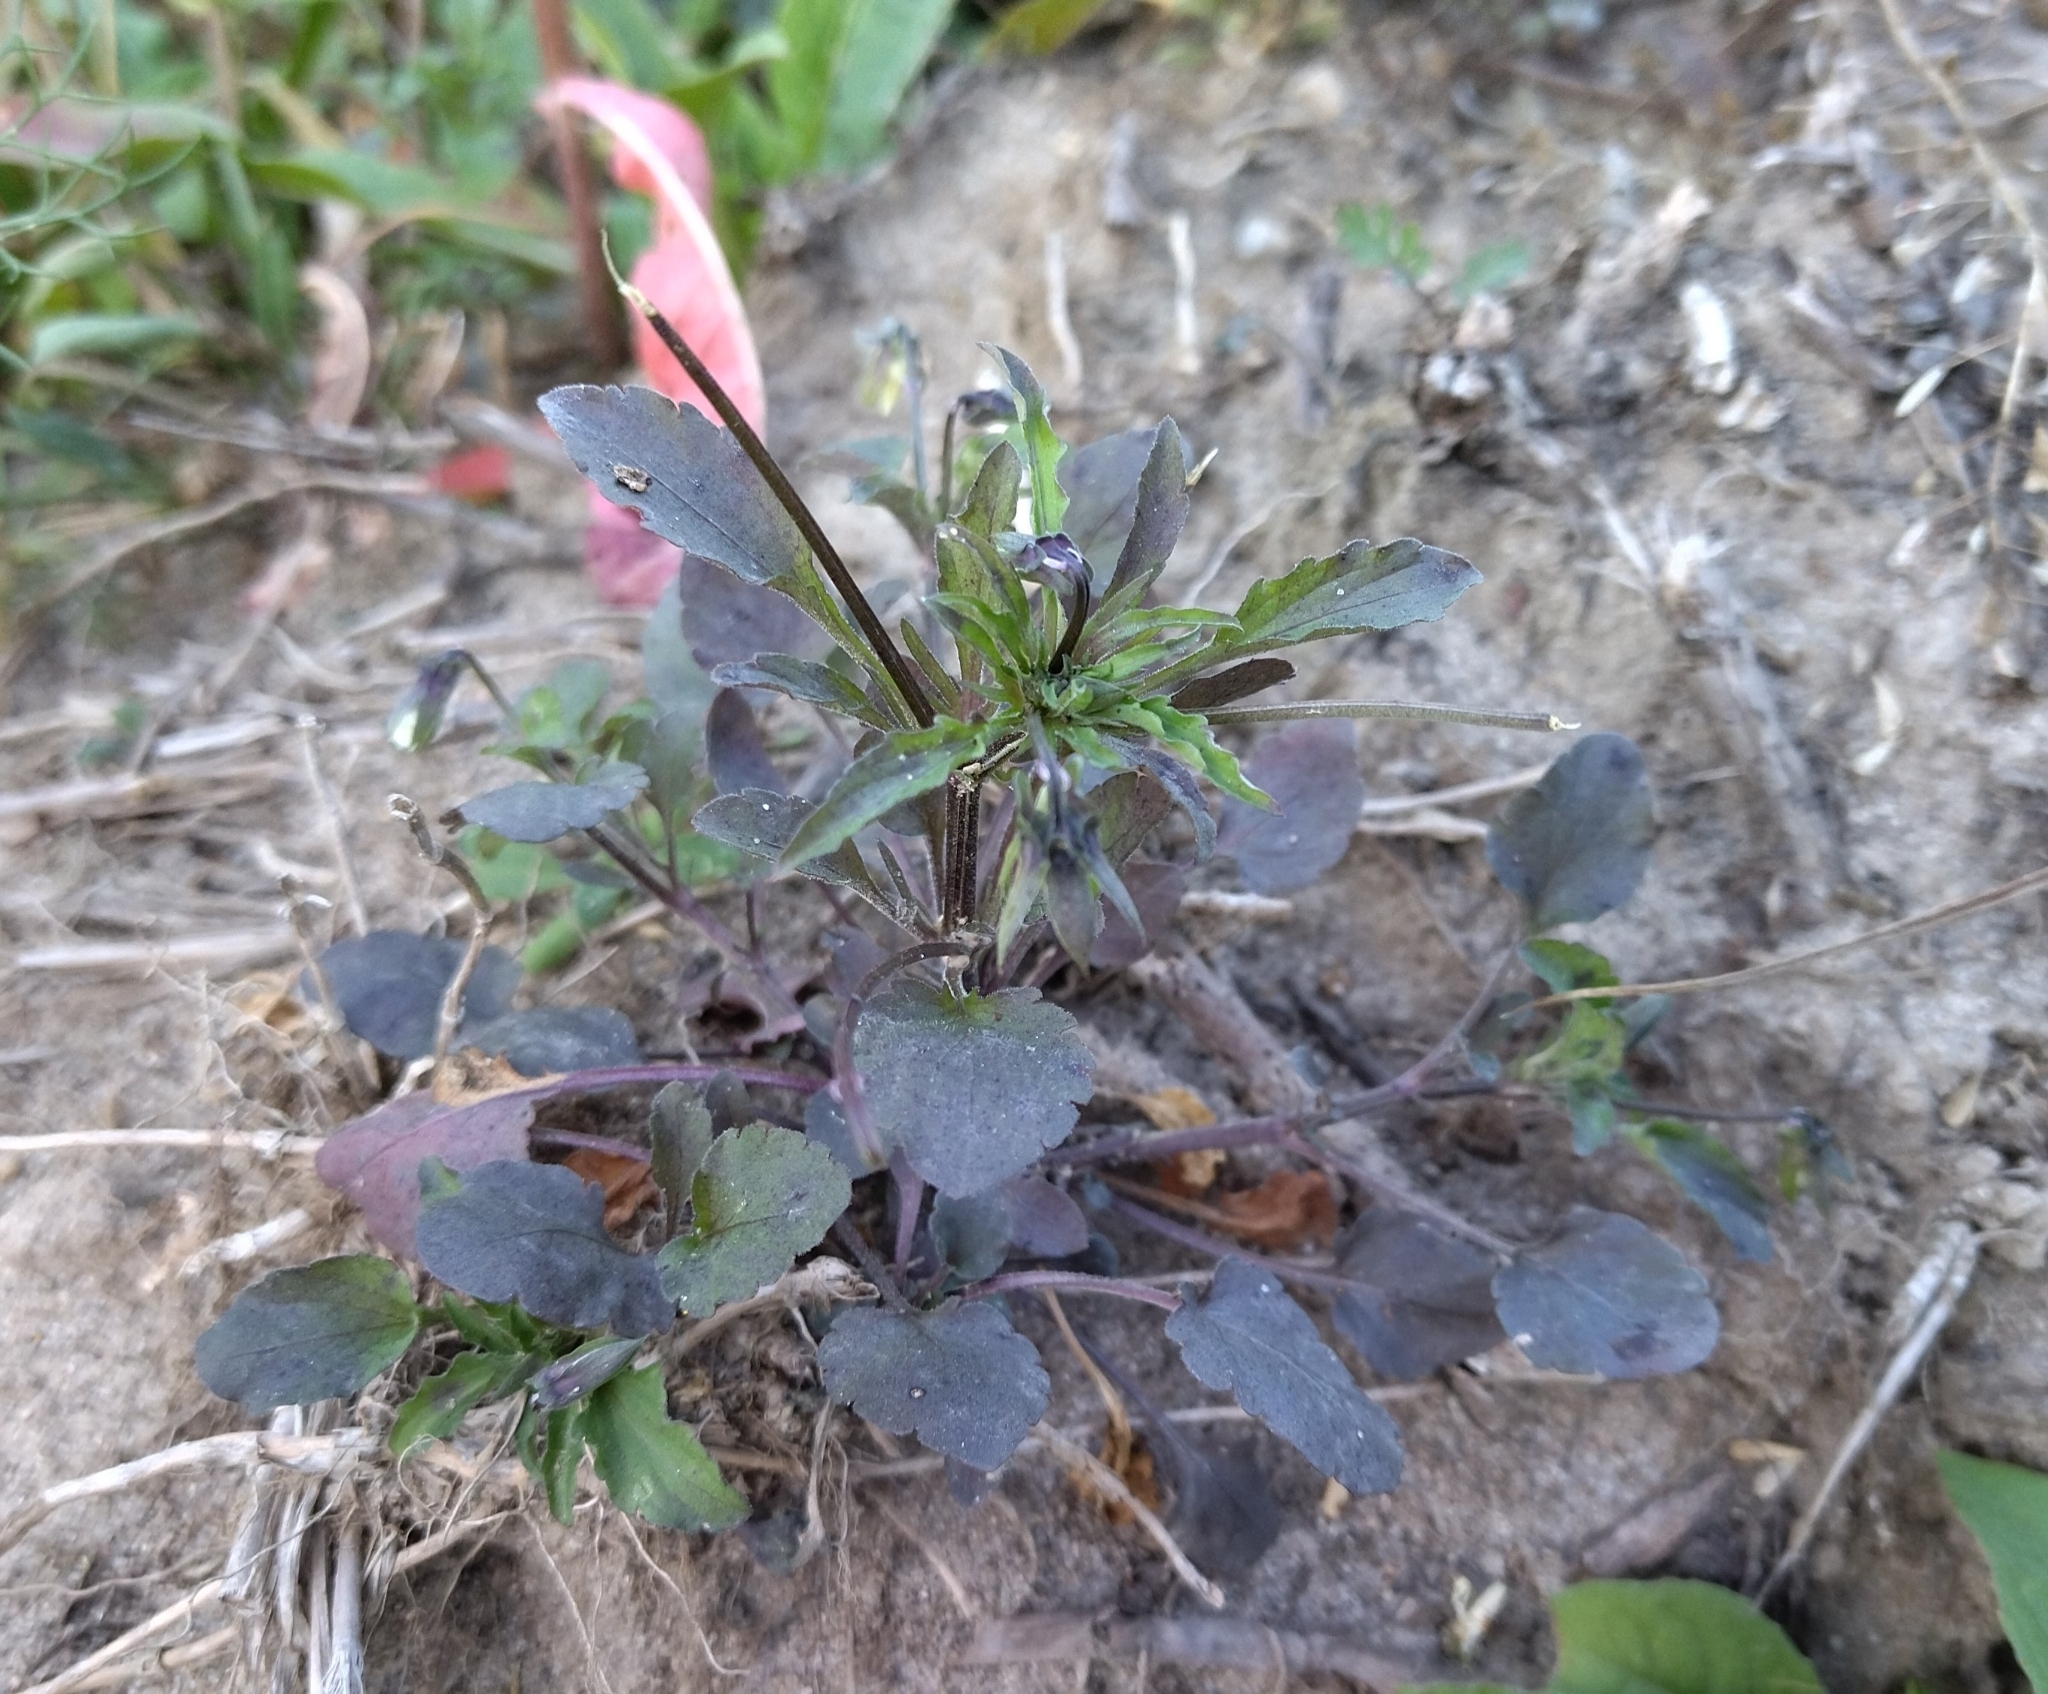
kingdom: Plantae
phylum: Tracheophyta
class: Magnoliopsida
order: Malpighiales
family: Violaceae
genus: Viola
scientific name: Viola arvensis
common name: Field pansy
